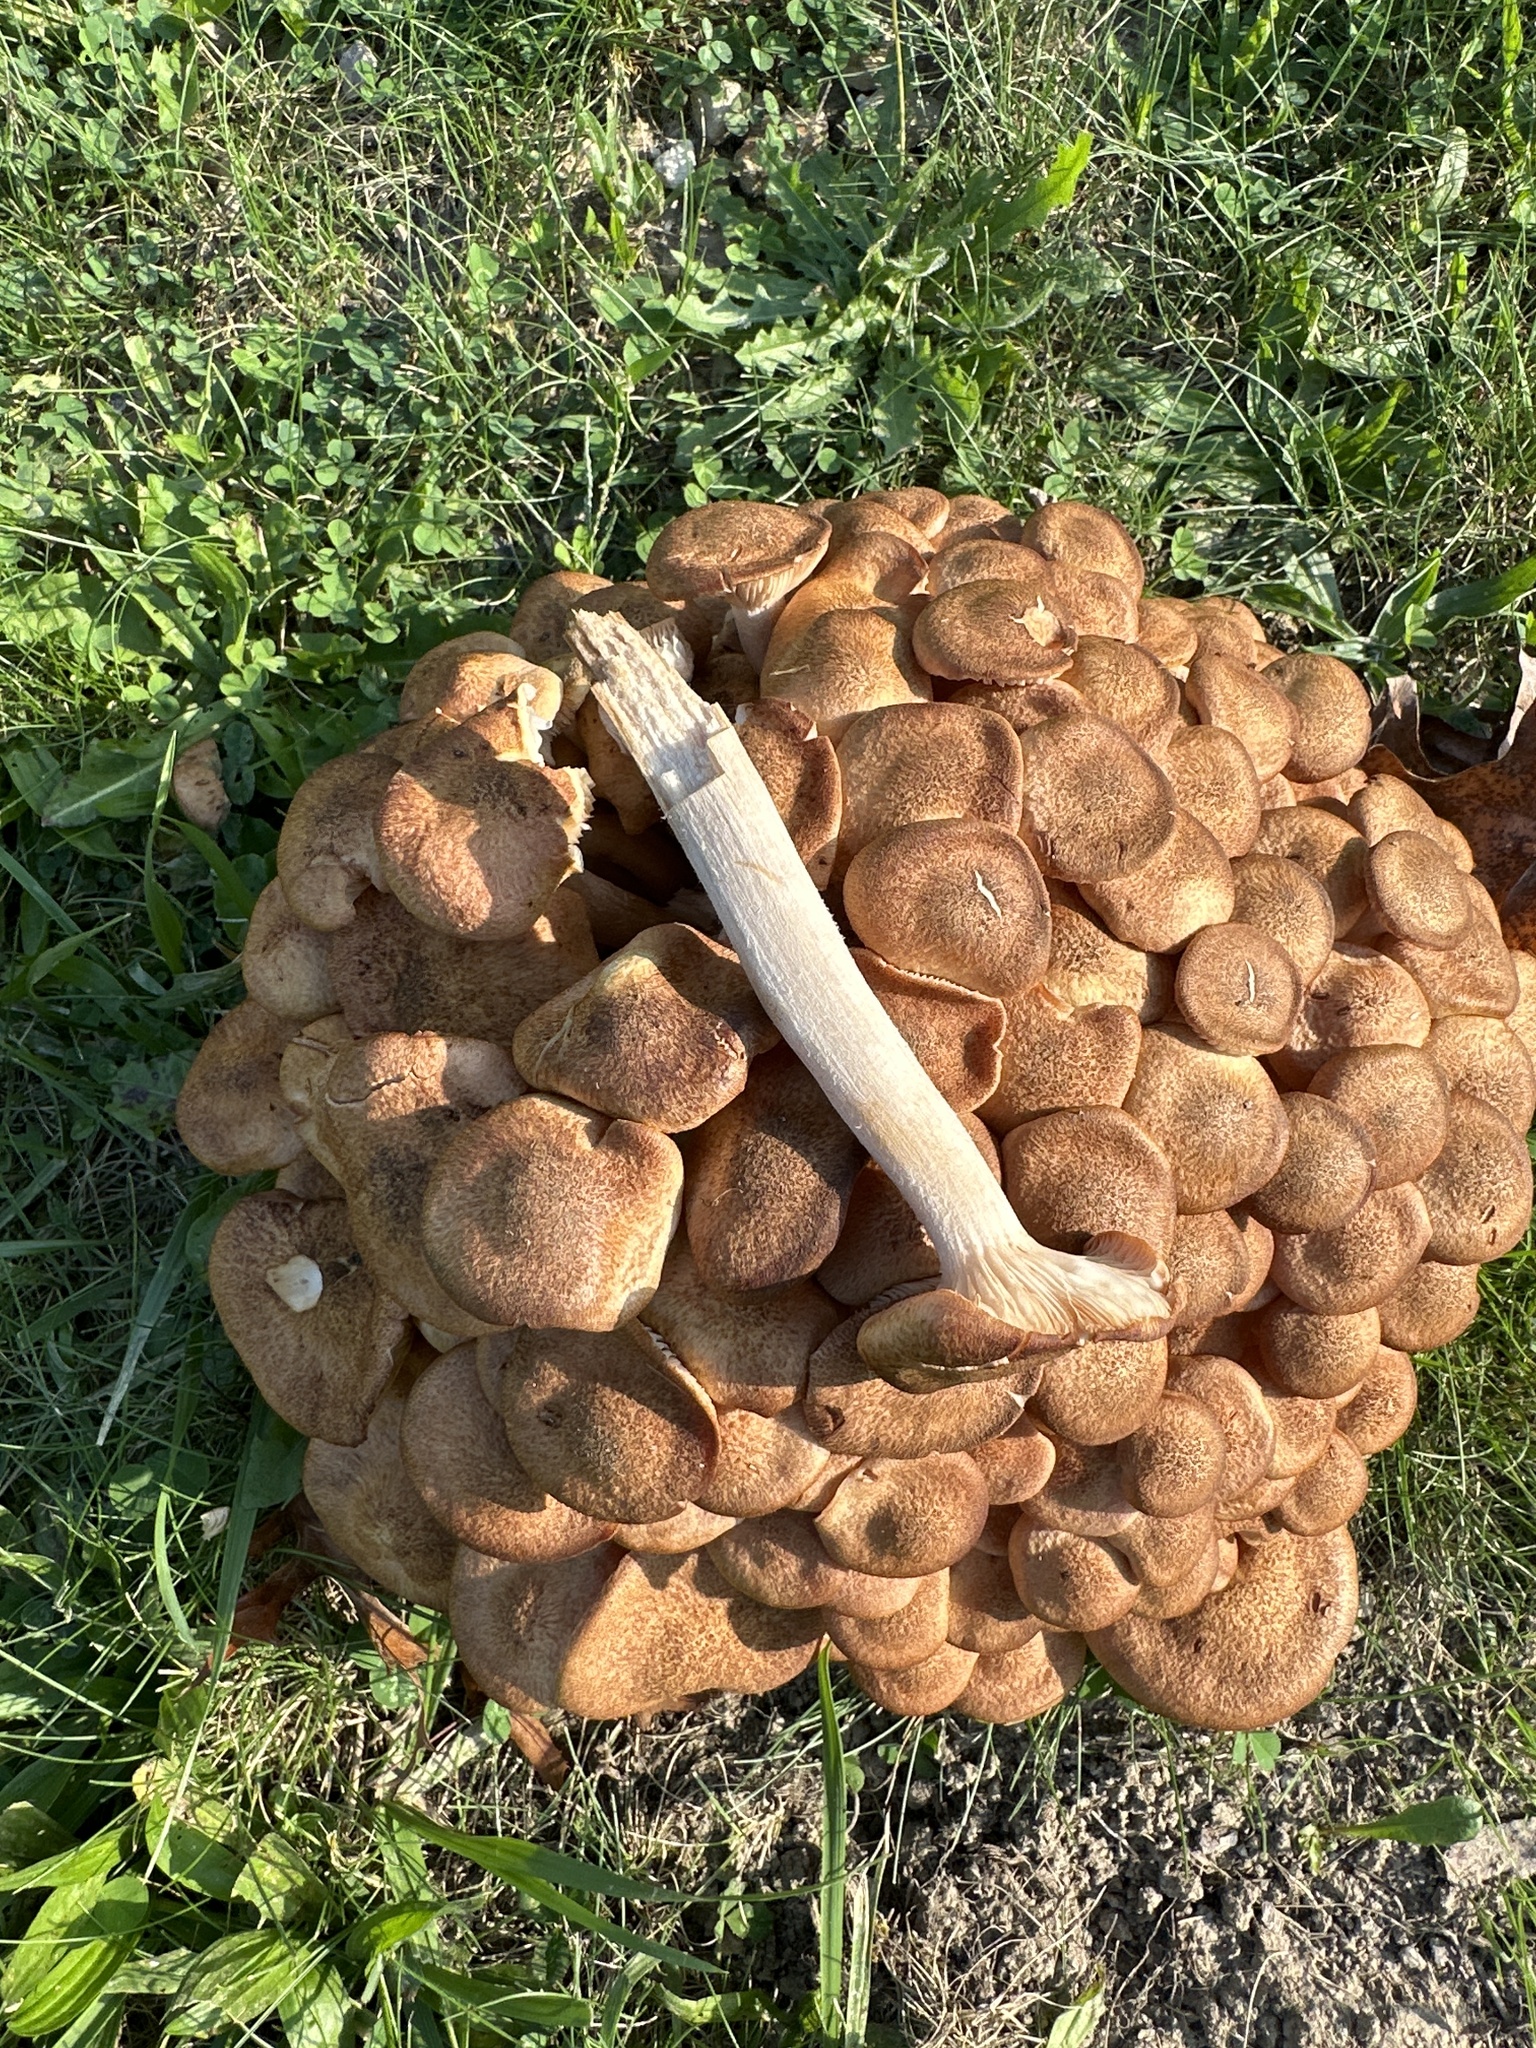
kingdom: Fungi
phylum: Basidiomycota
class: Agaricomycetes
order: Agaricales
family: Physalacriaceae
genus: Desarmillaria
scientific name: Desarmillaria caespitosa
